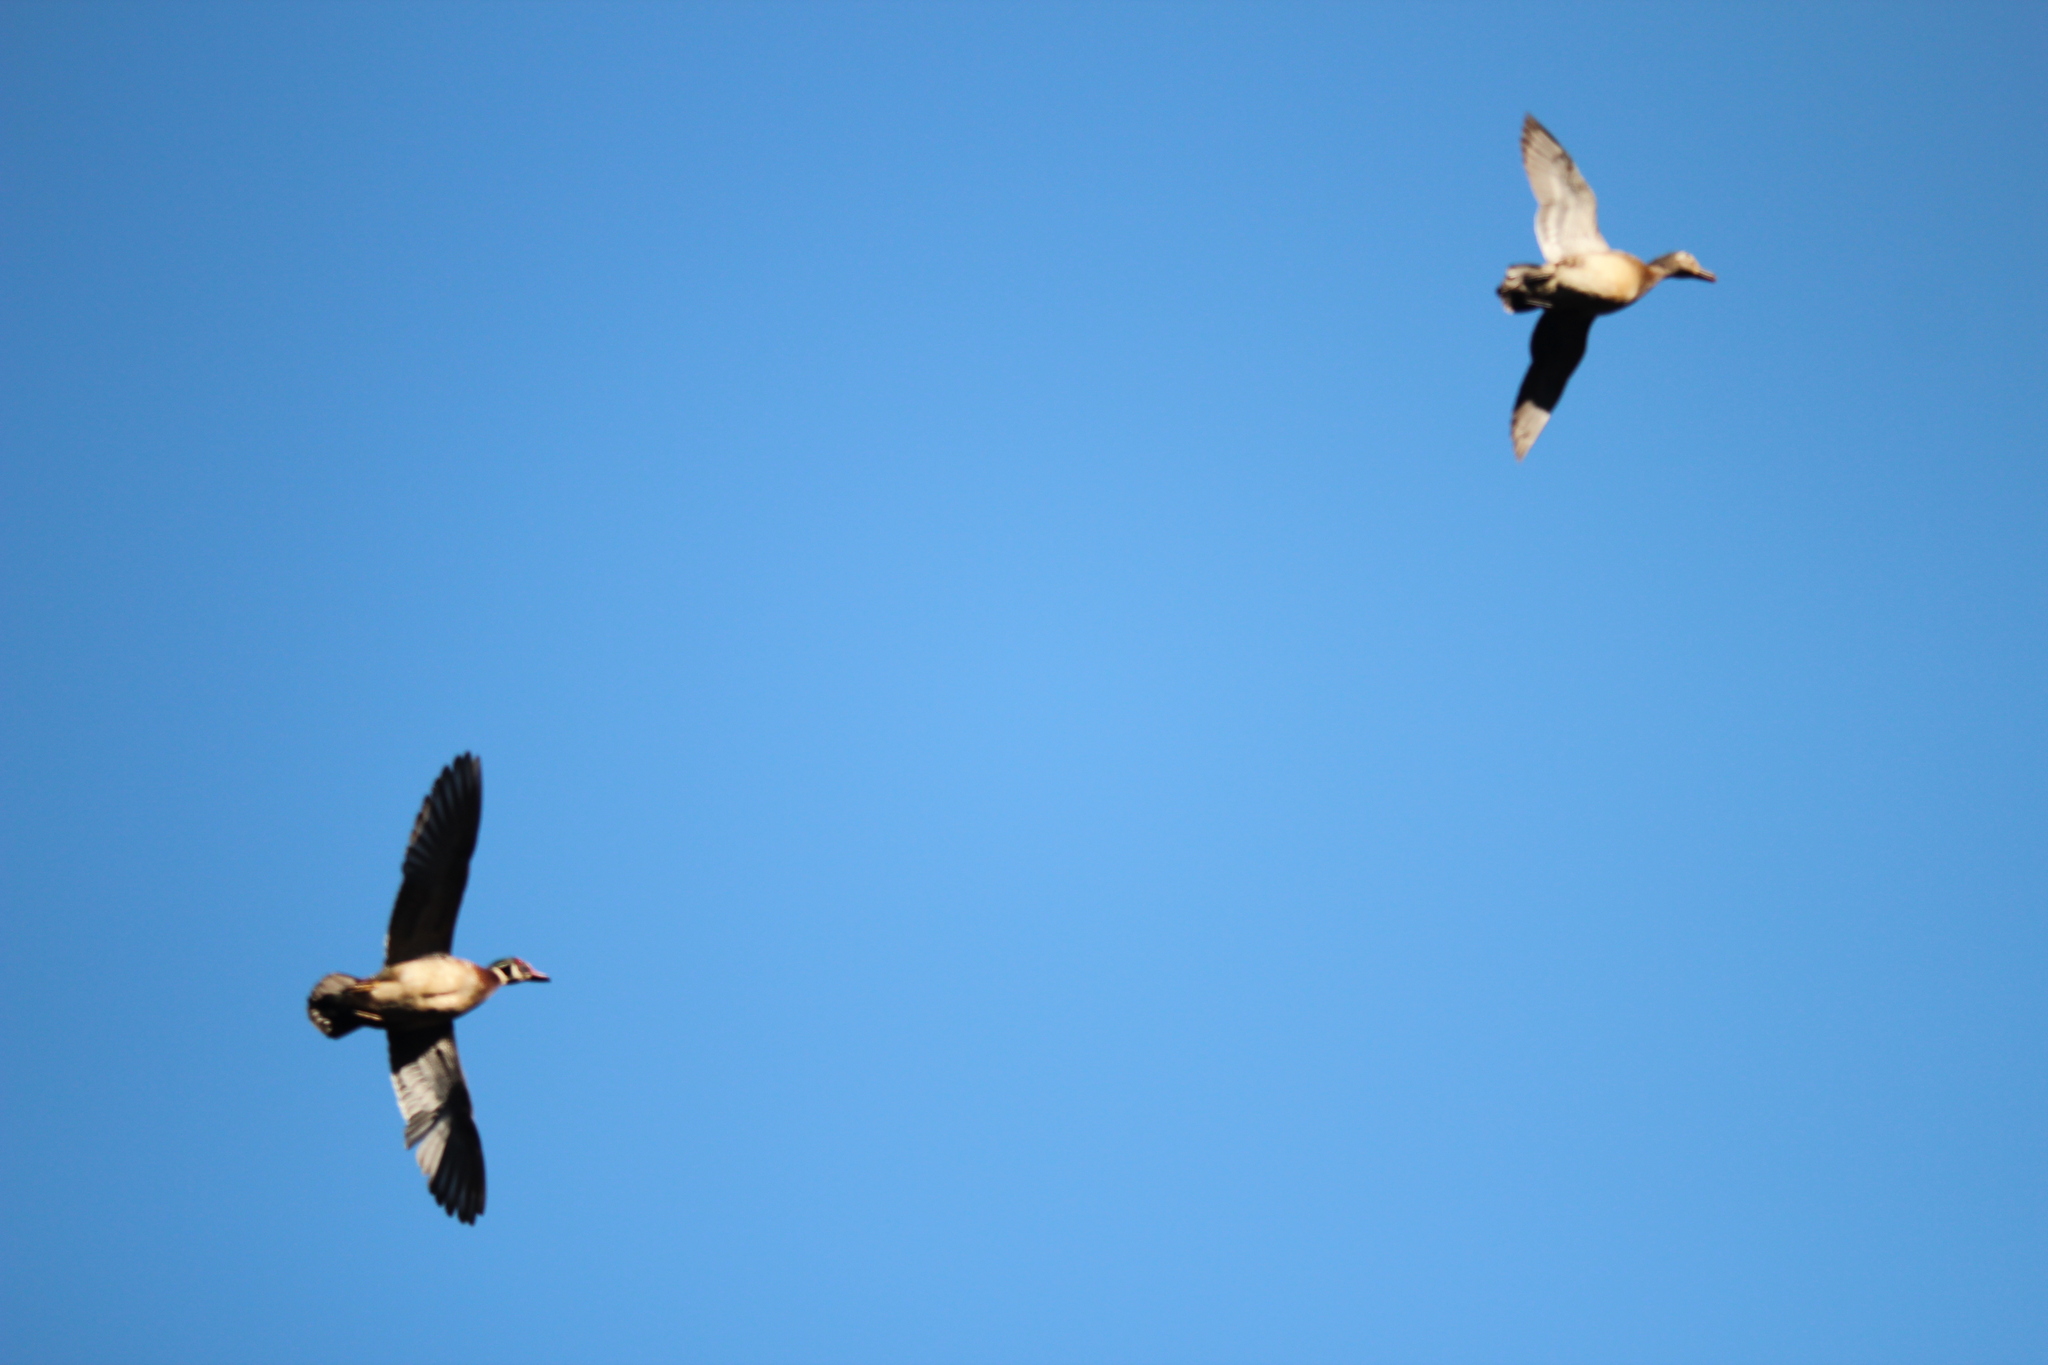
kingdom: Animalia
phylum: Chordata
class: Aves
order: Anseriformes
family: Anatidae
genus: Aix
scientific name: Aix sponsa
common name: Wood duck
